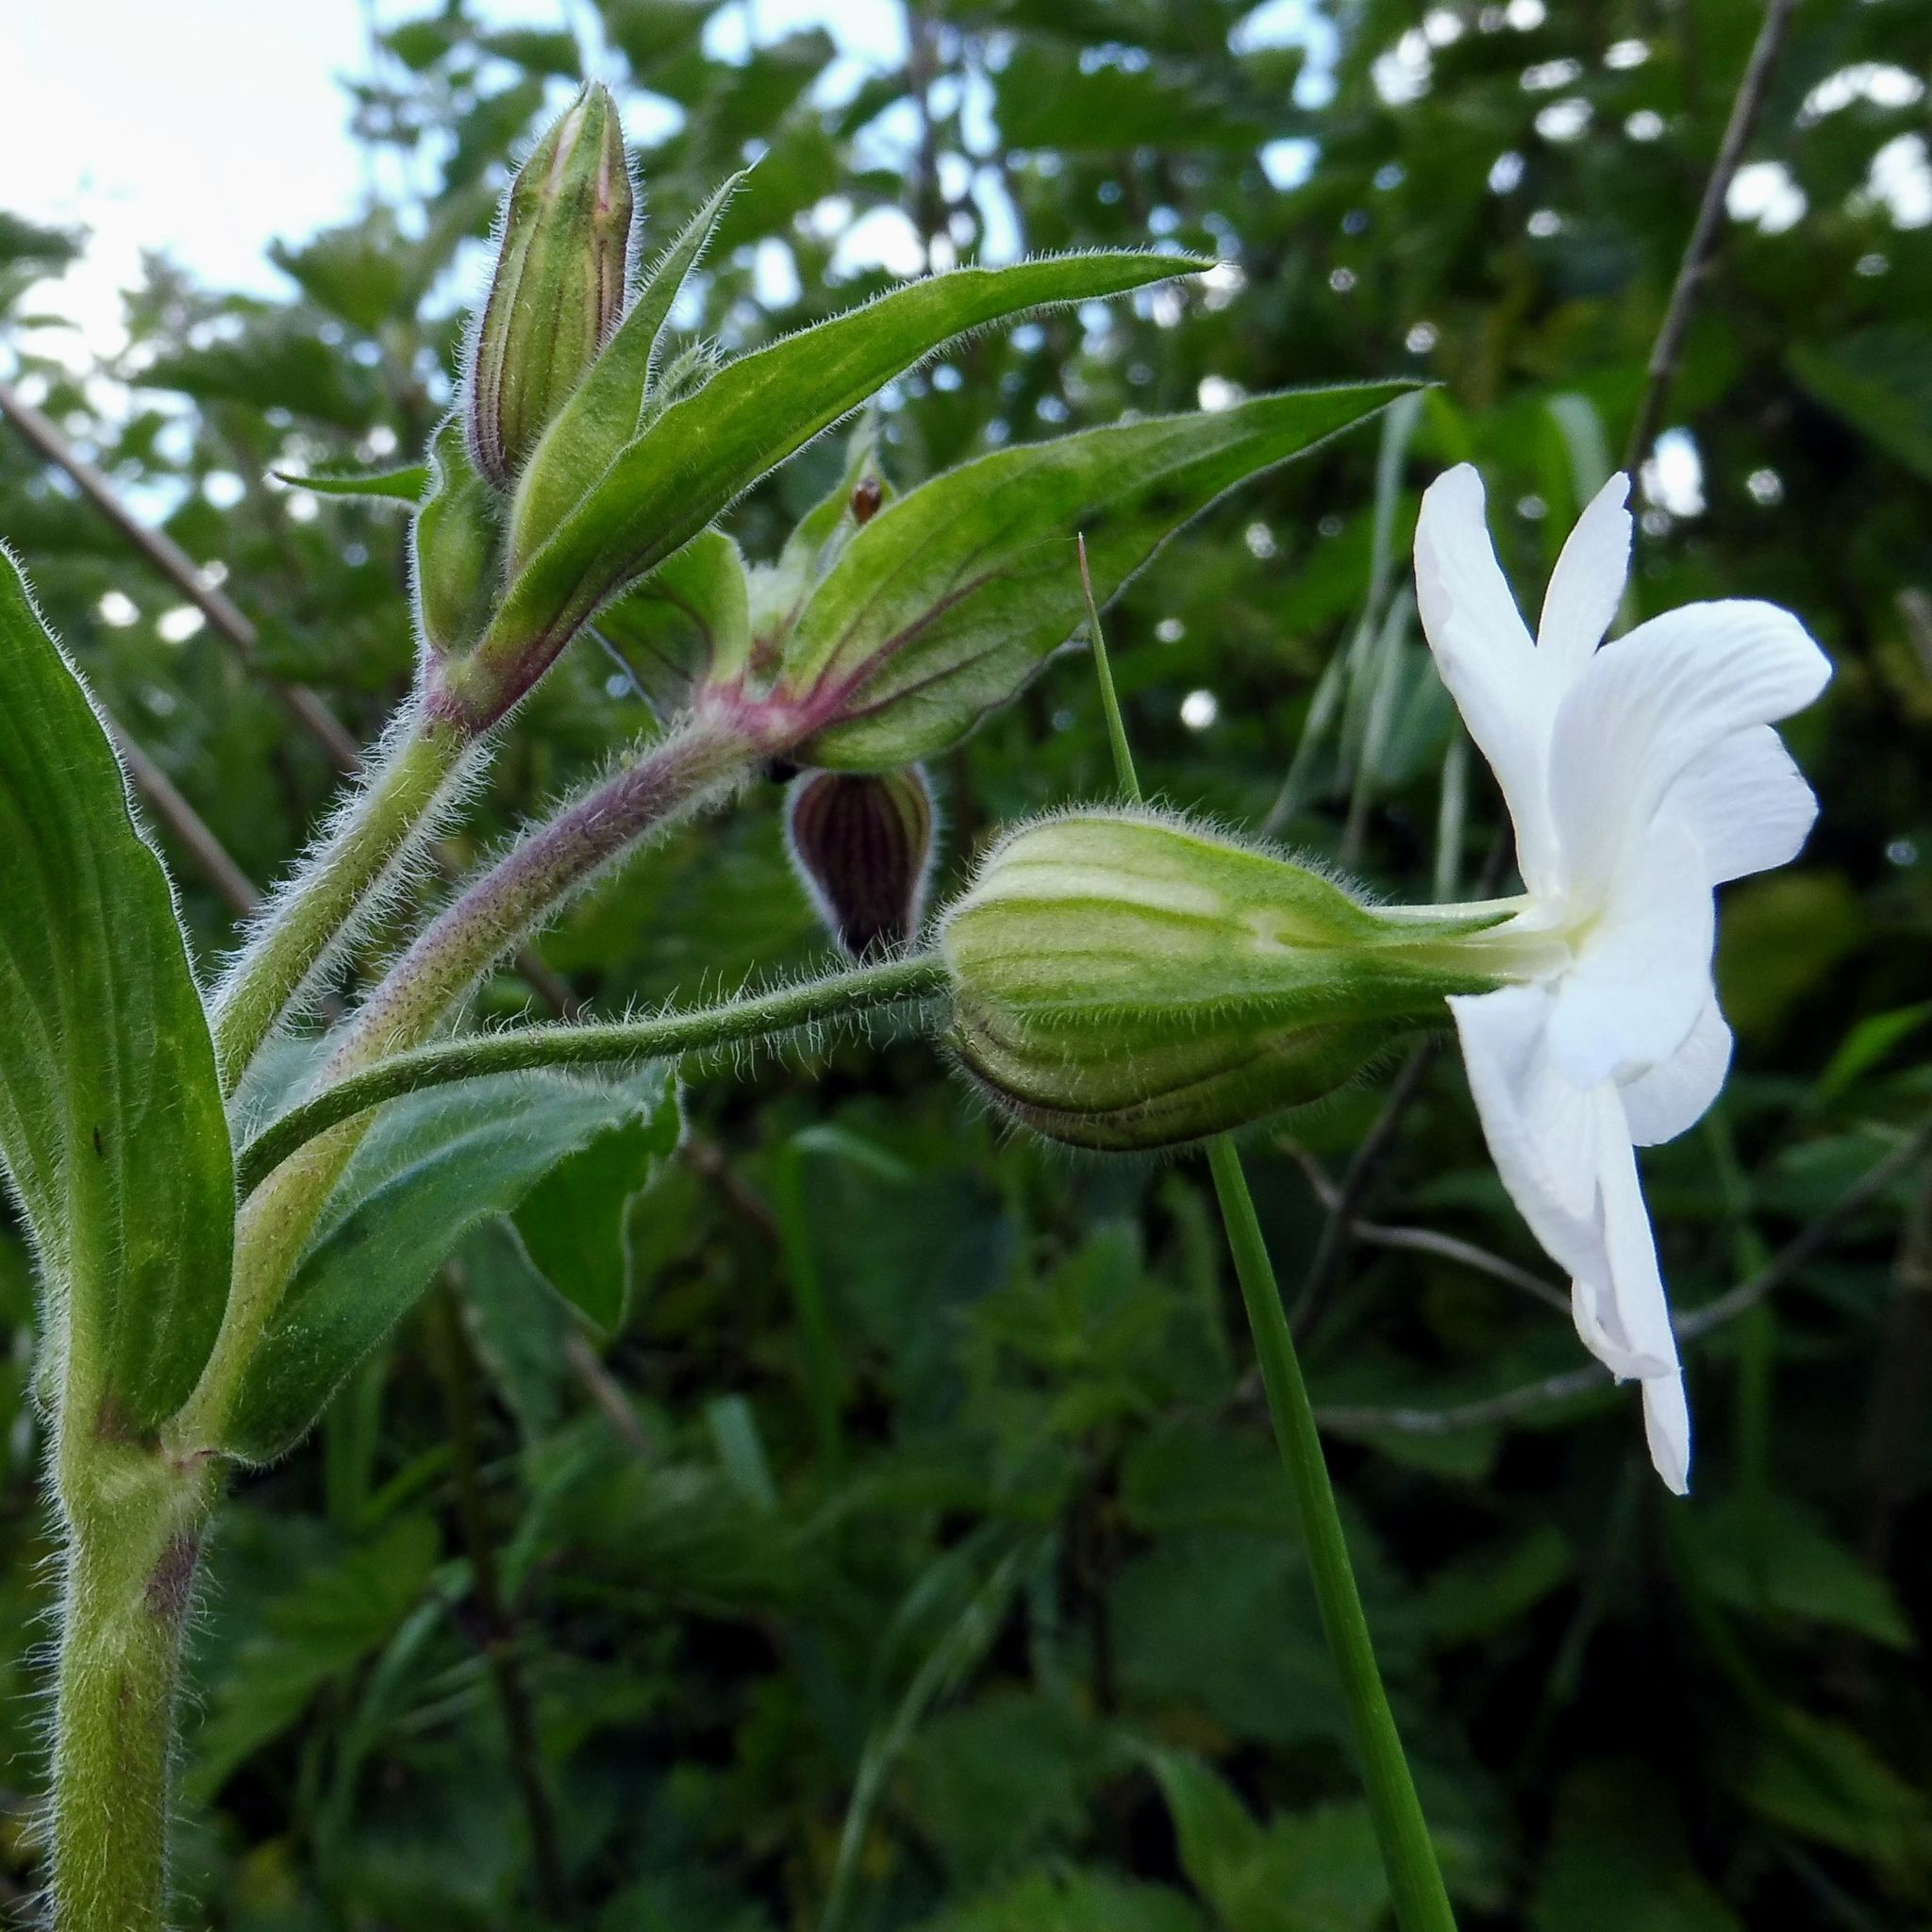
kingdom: Plantae
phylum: Tracheophyta
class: Magnoliopsida
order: Caryophyllales
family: Caryophyllaceae
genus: Silene
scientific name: Silene latifolia
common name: White campion
